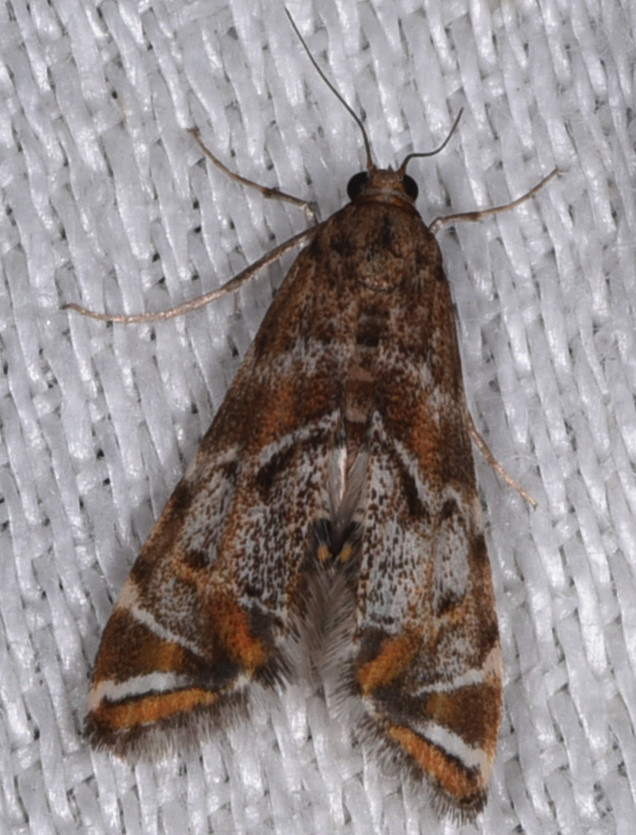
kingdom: Animalia
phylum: Arthropoda
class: Insecta
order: Lepidoptera
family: Crambidae
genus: Petrophila
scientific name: Petrophila confusalis
